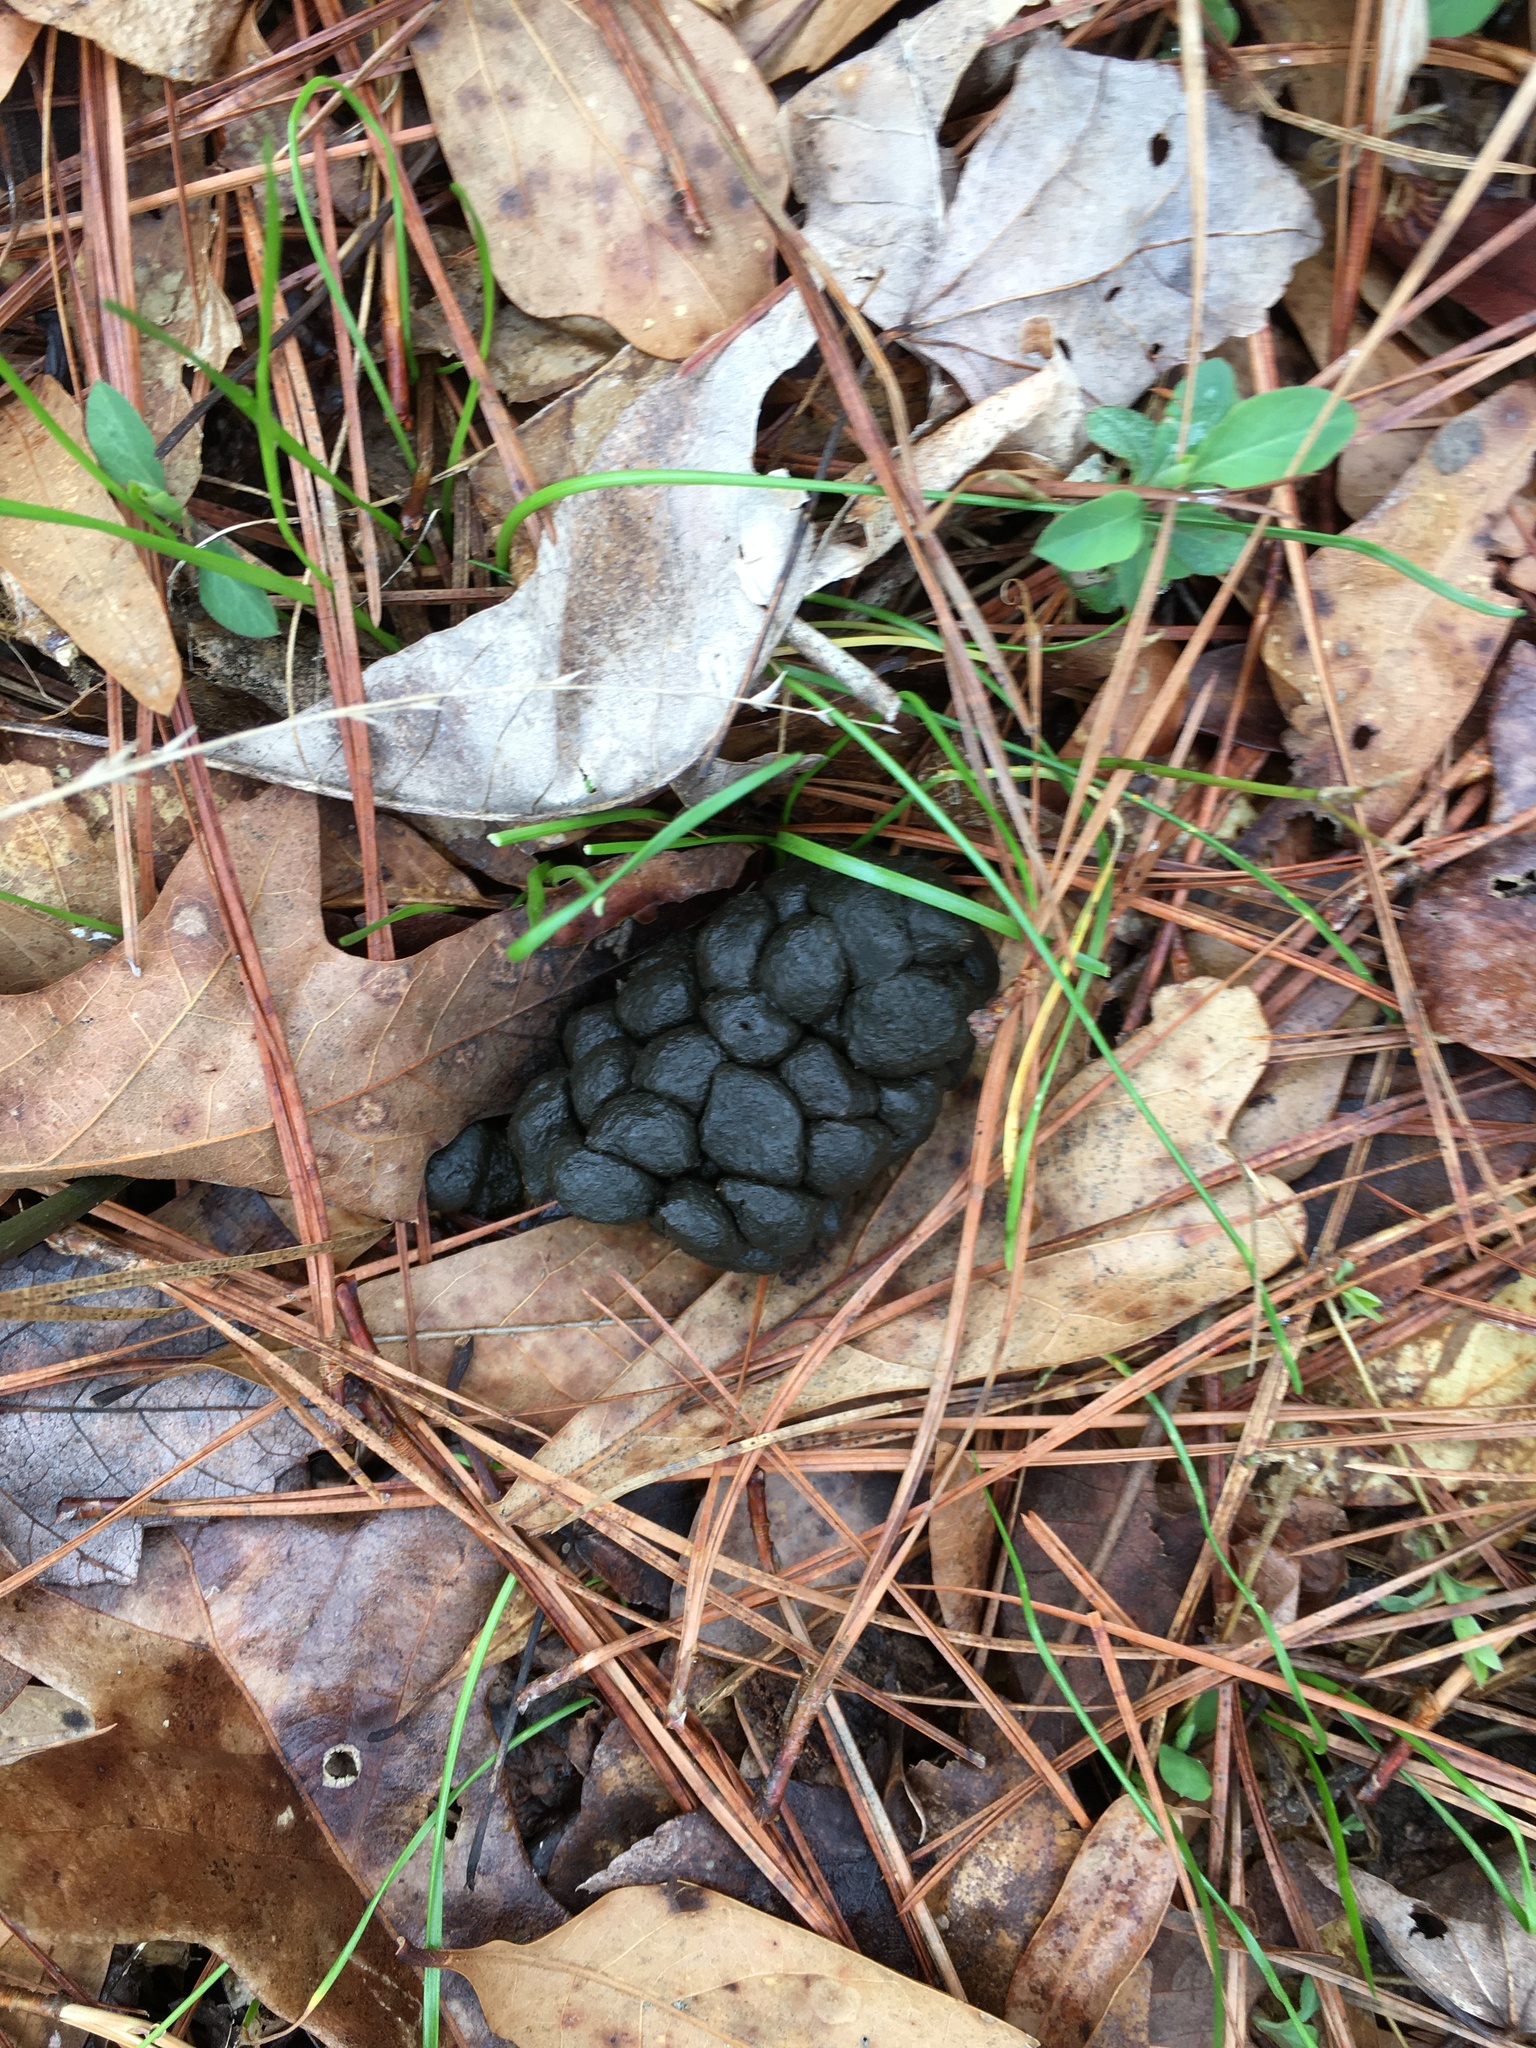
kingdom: Animalia
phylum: Chordata
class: Mammalia
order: Artiodactyla
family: Cervidae
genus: Odocoileus
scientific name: Odocoileus virginianus
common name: White-tailed deer
